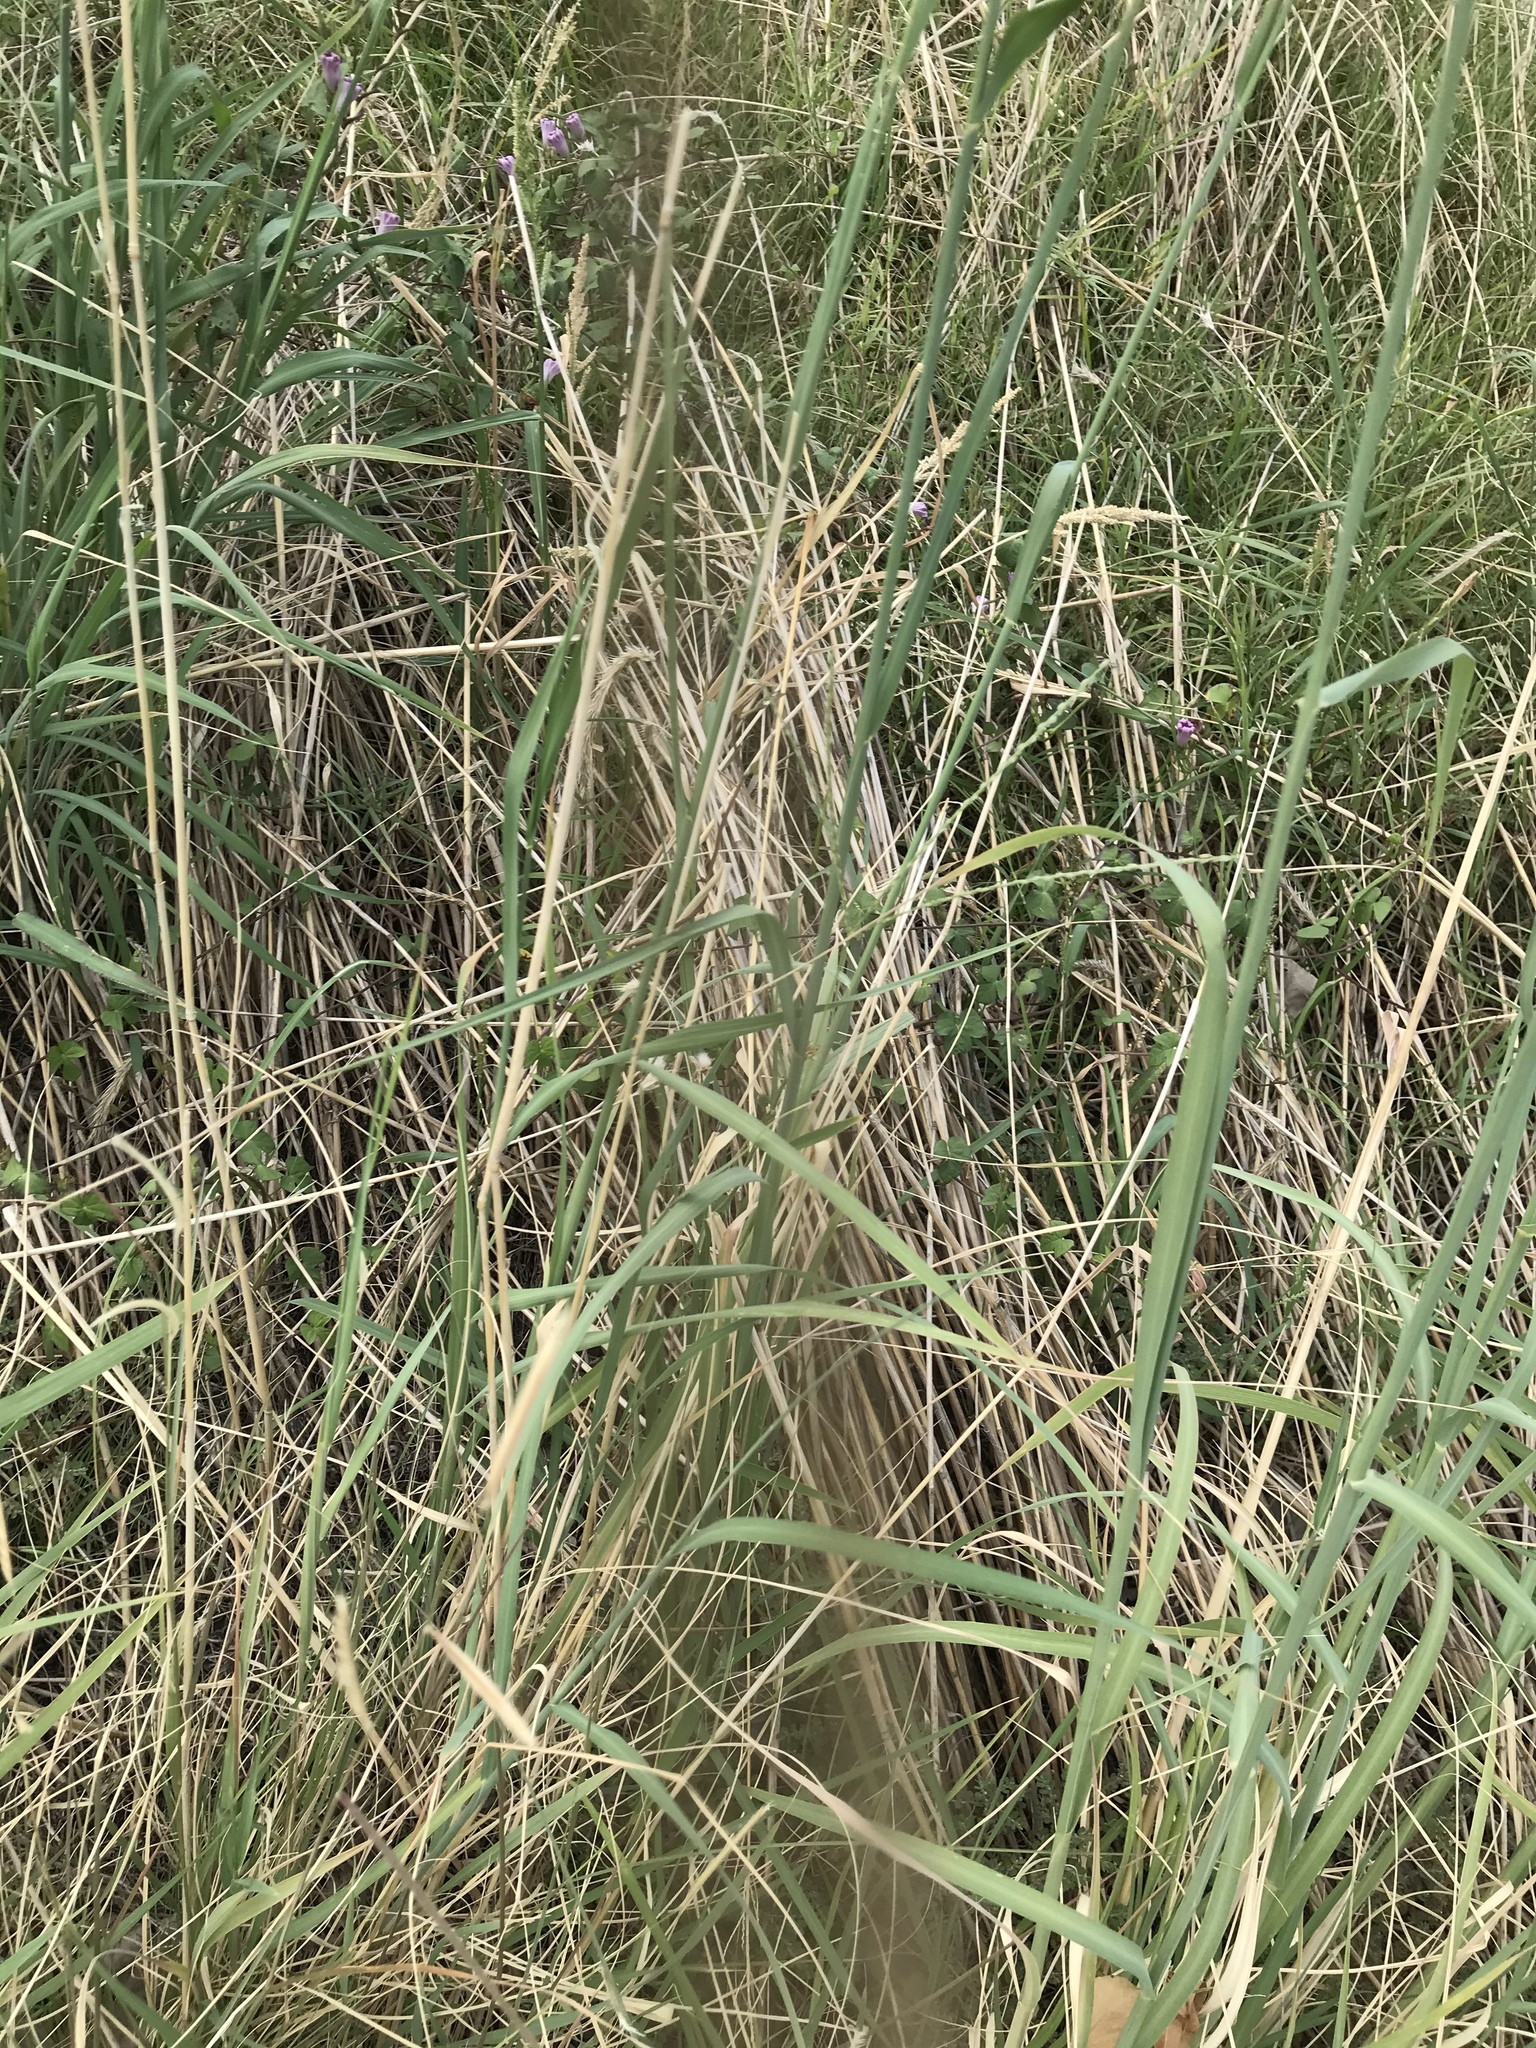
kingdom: Plantae
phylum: Tracheophyta
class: Liliopsida
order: Poales
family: Poaceae
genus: Disakisperma
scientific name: Disakisperma dubium
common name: Green sprangletop
